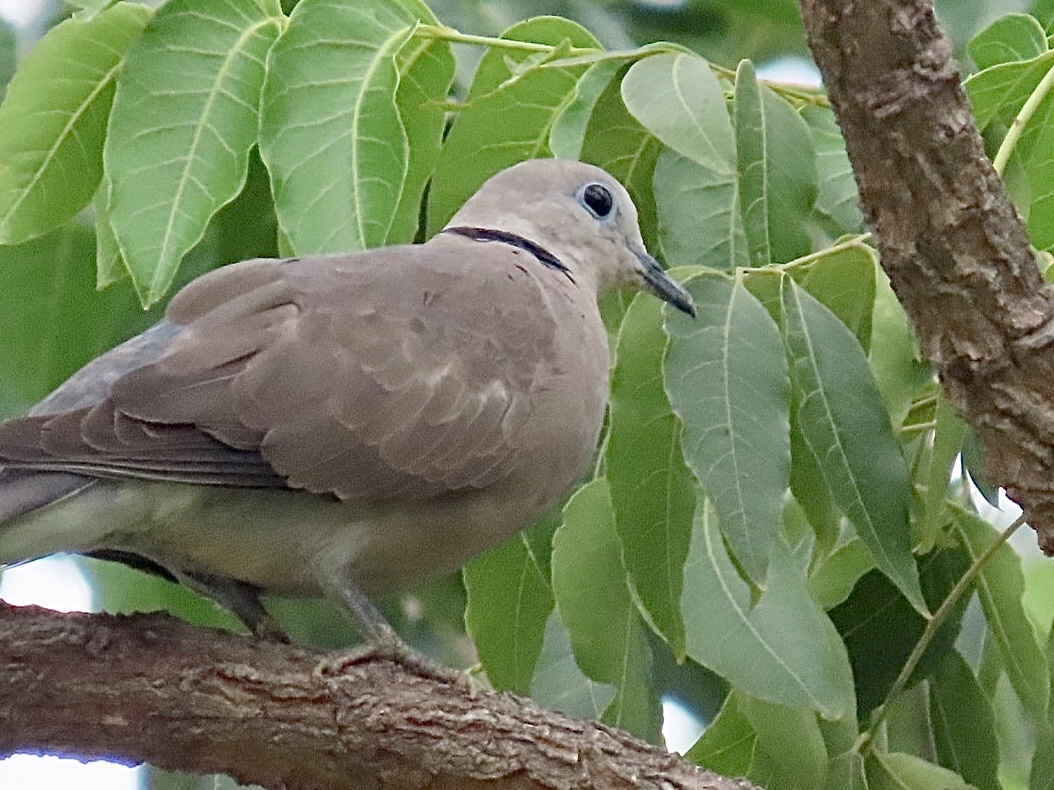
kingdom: Animalia
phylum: Chordata
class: Aves
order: Columbiformes
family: Columbidae
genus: Streptopelia
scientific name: Streptopelia tranquebarica
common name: Red turtle dove
